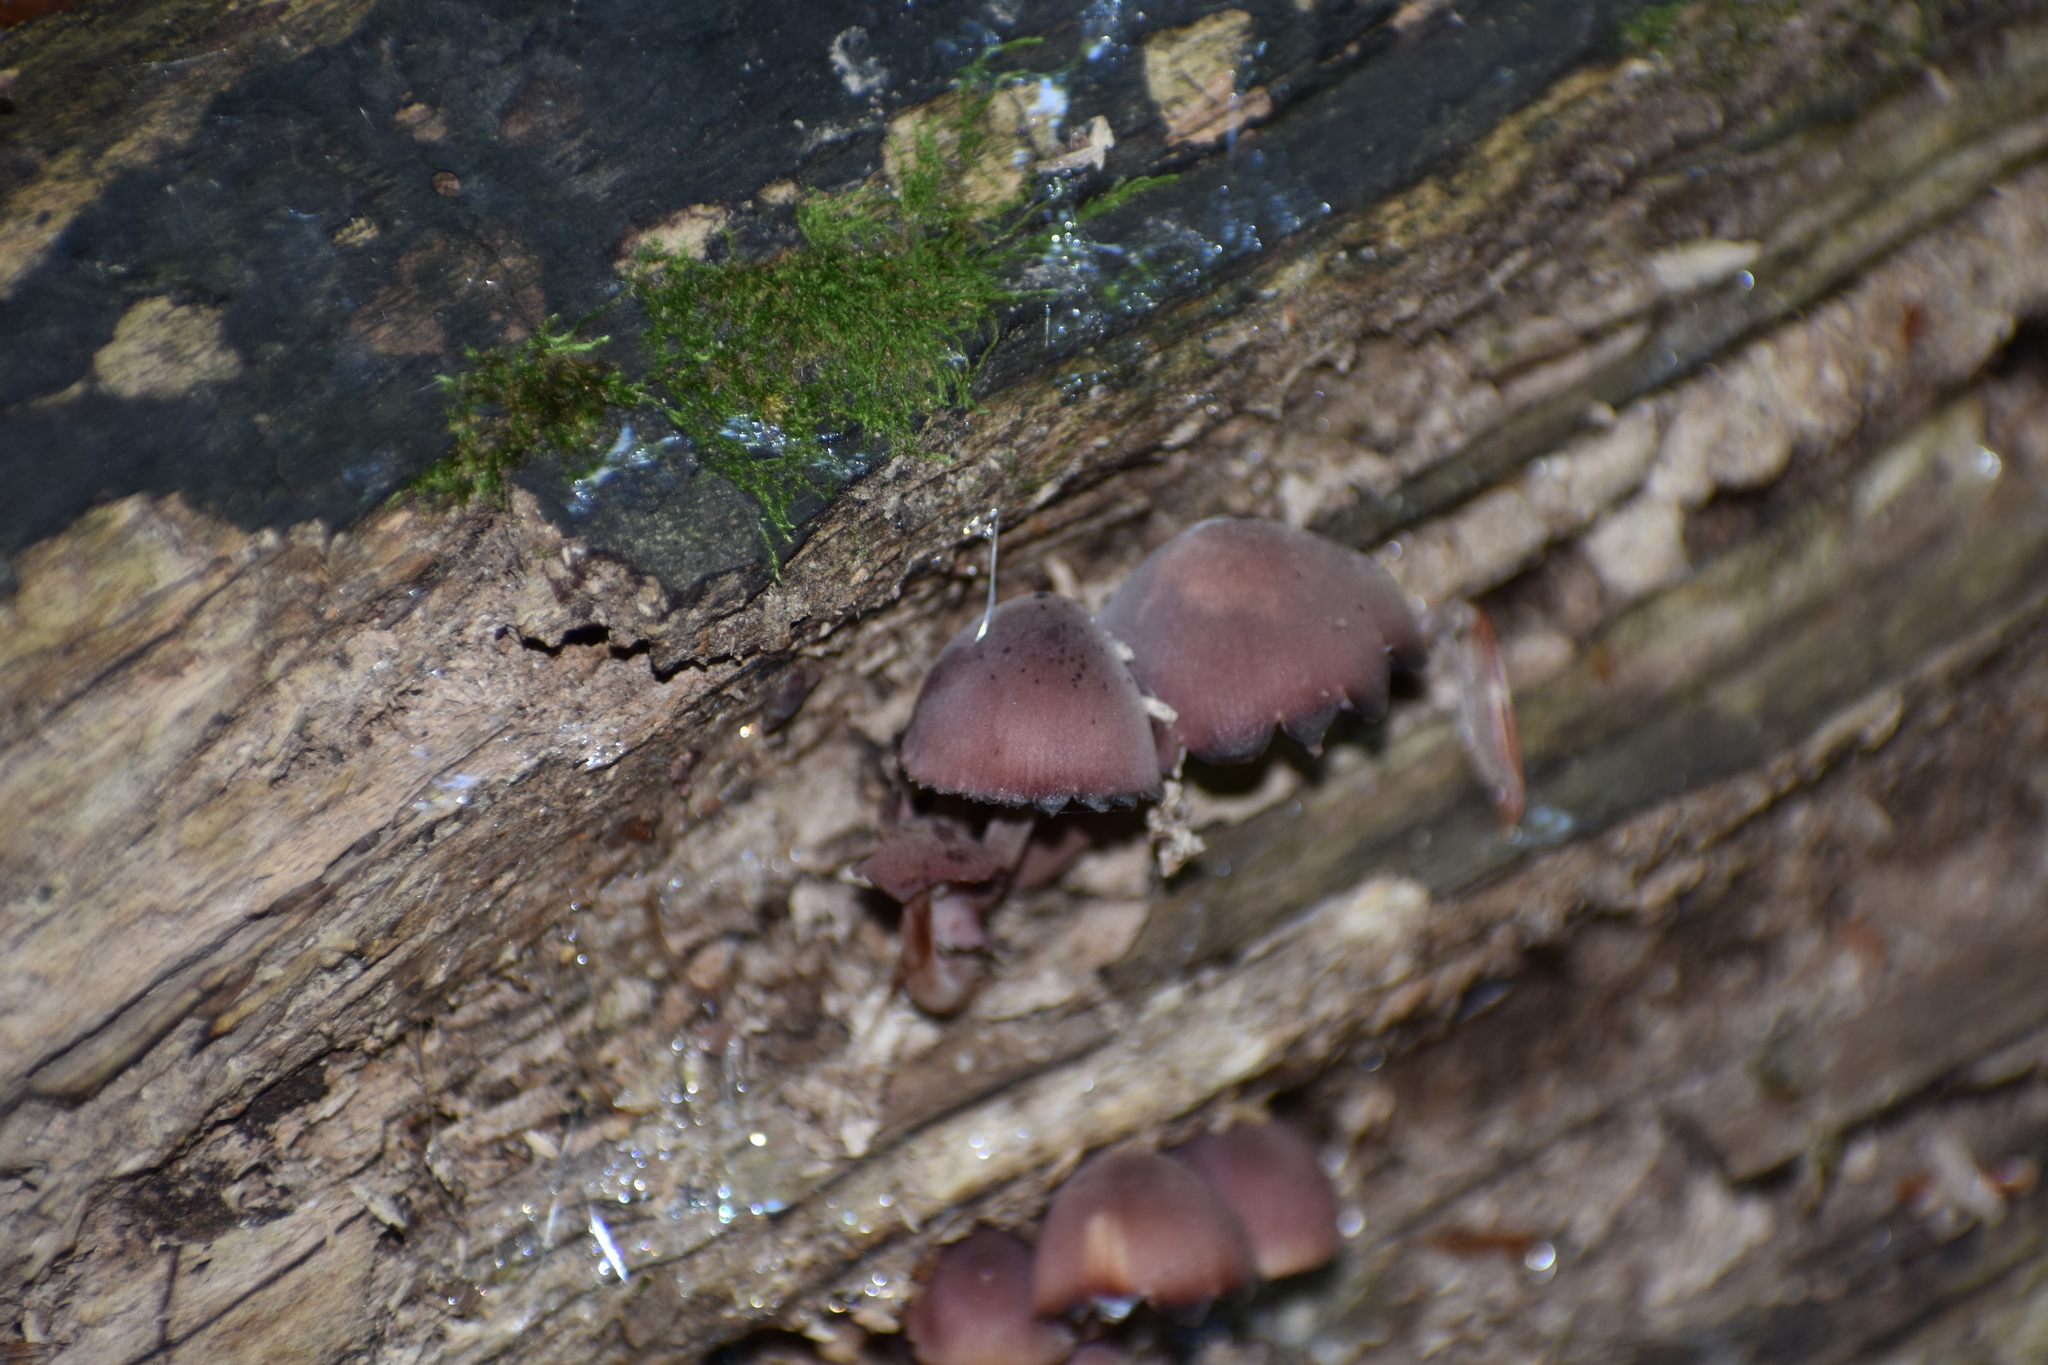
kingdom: Fungi
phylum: Basidiomycota
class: Agaricomycetes
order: Agaricales
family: Mycenaceae
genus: Mycena
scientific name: Mycena haematopus
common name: Burgundydrop bonnet
